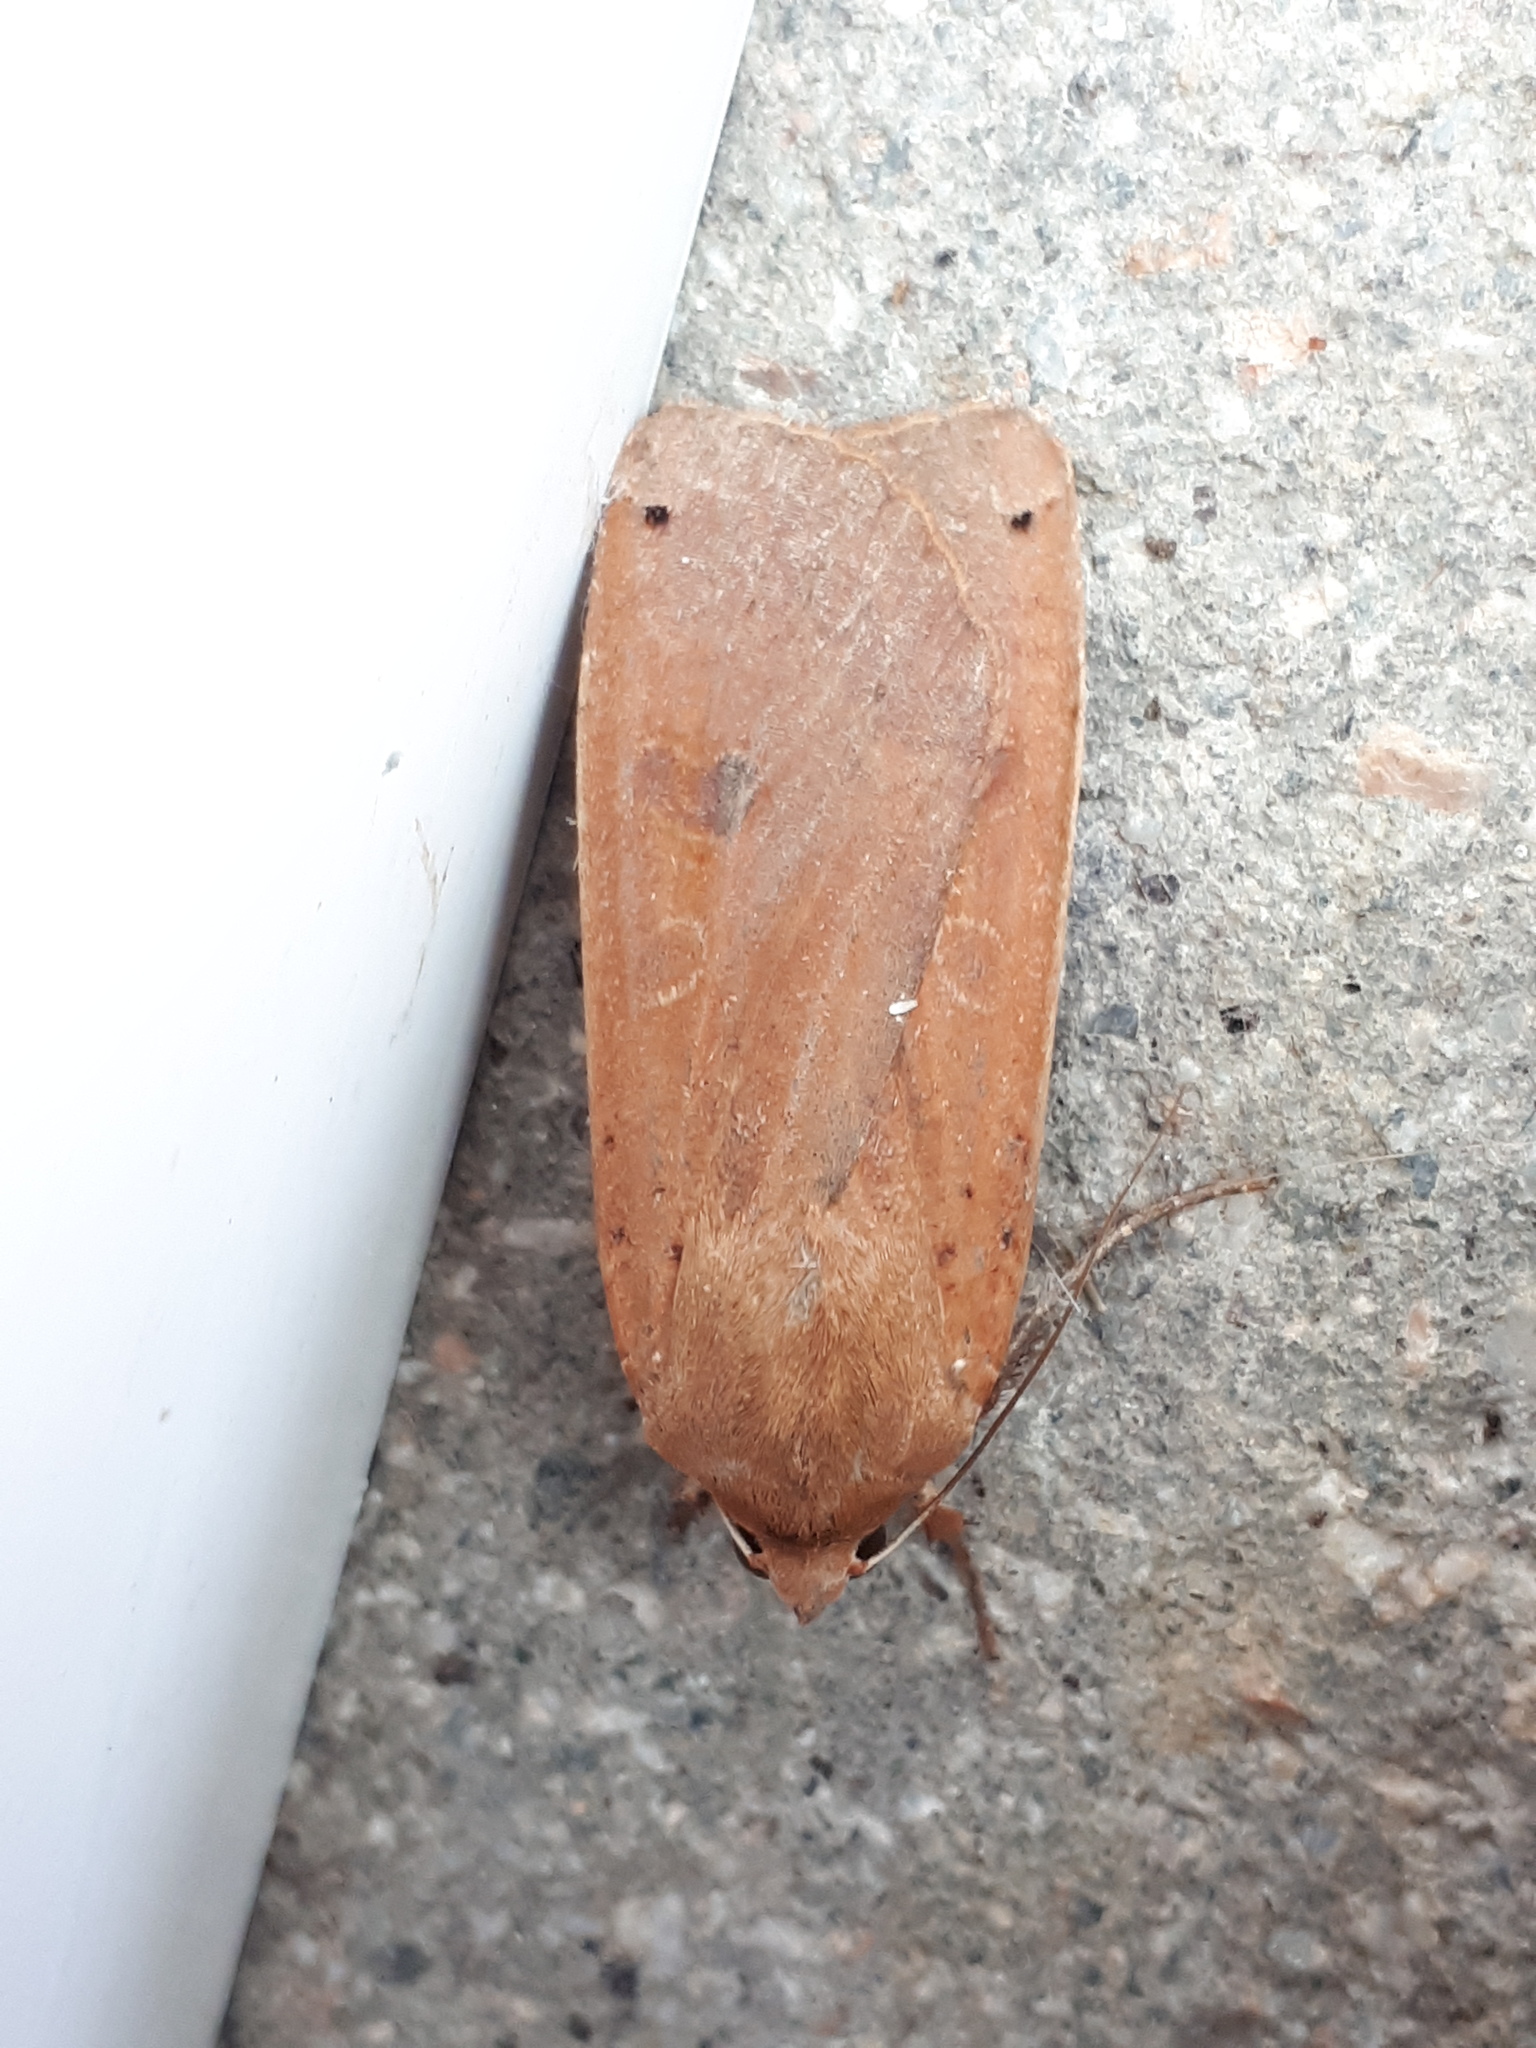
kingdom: Animalia
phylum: Arthropoda
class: Insecta
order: Lepidoptera
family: Noctuidae
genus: Noctua
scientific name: Noctua pronuba
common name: Large yellow underwing
